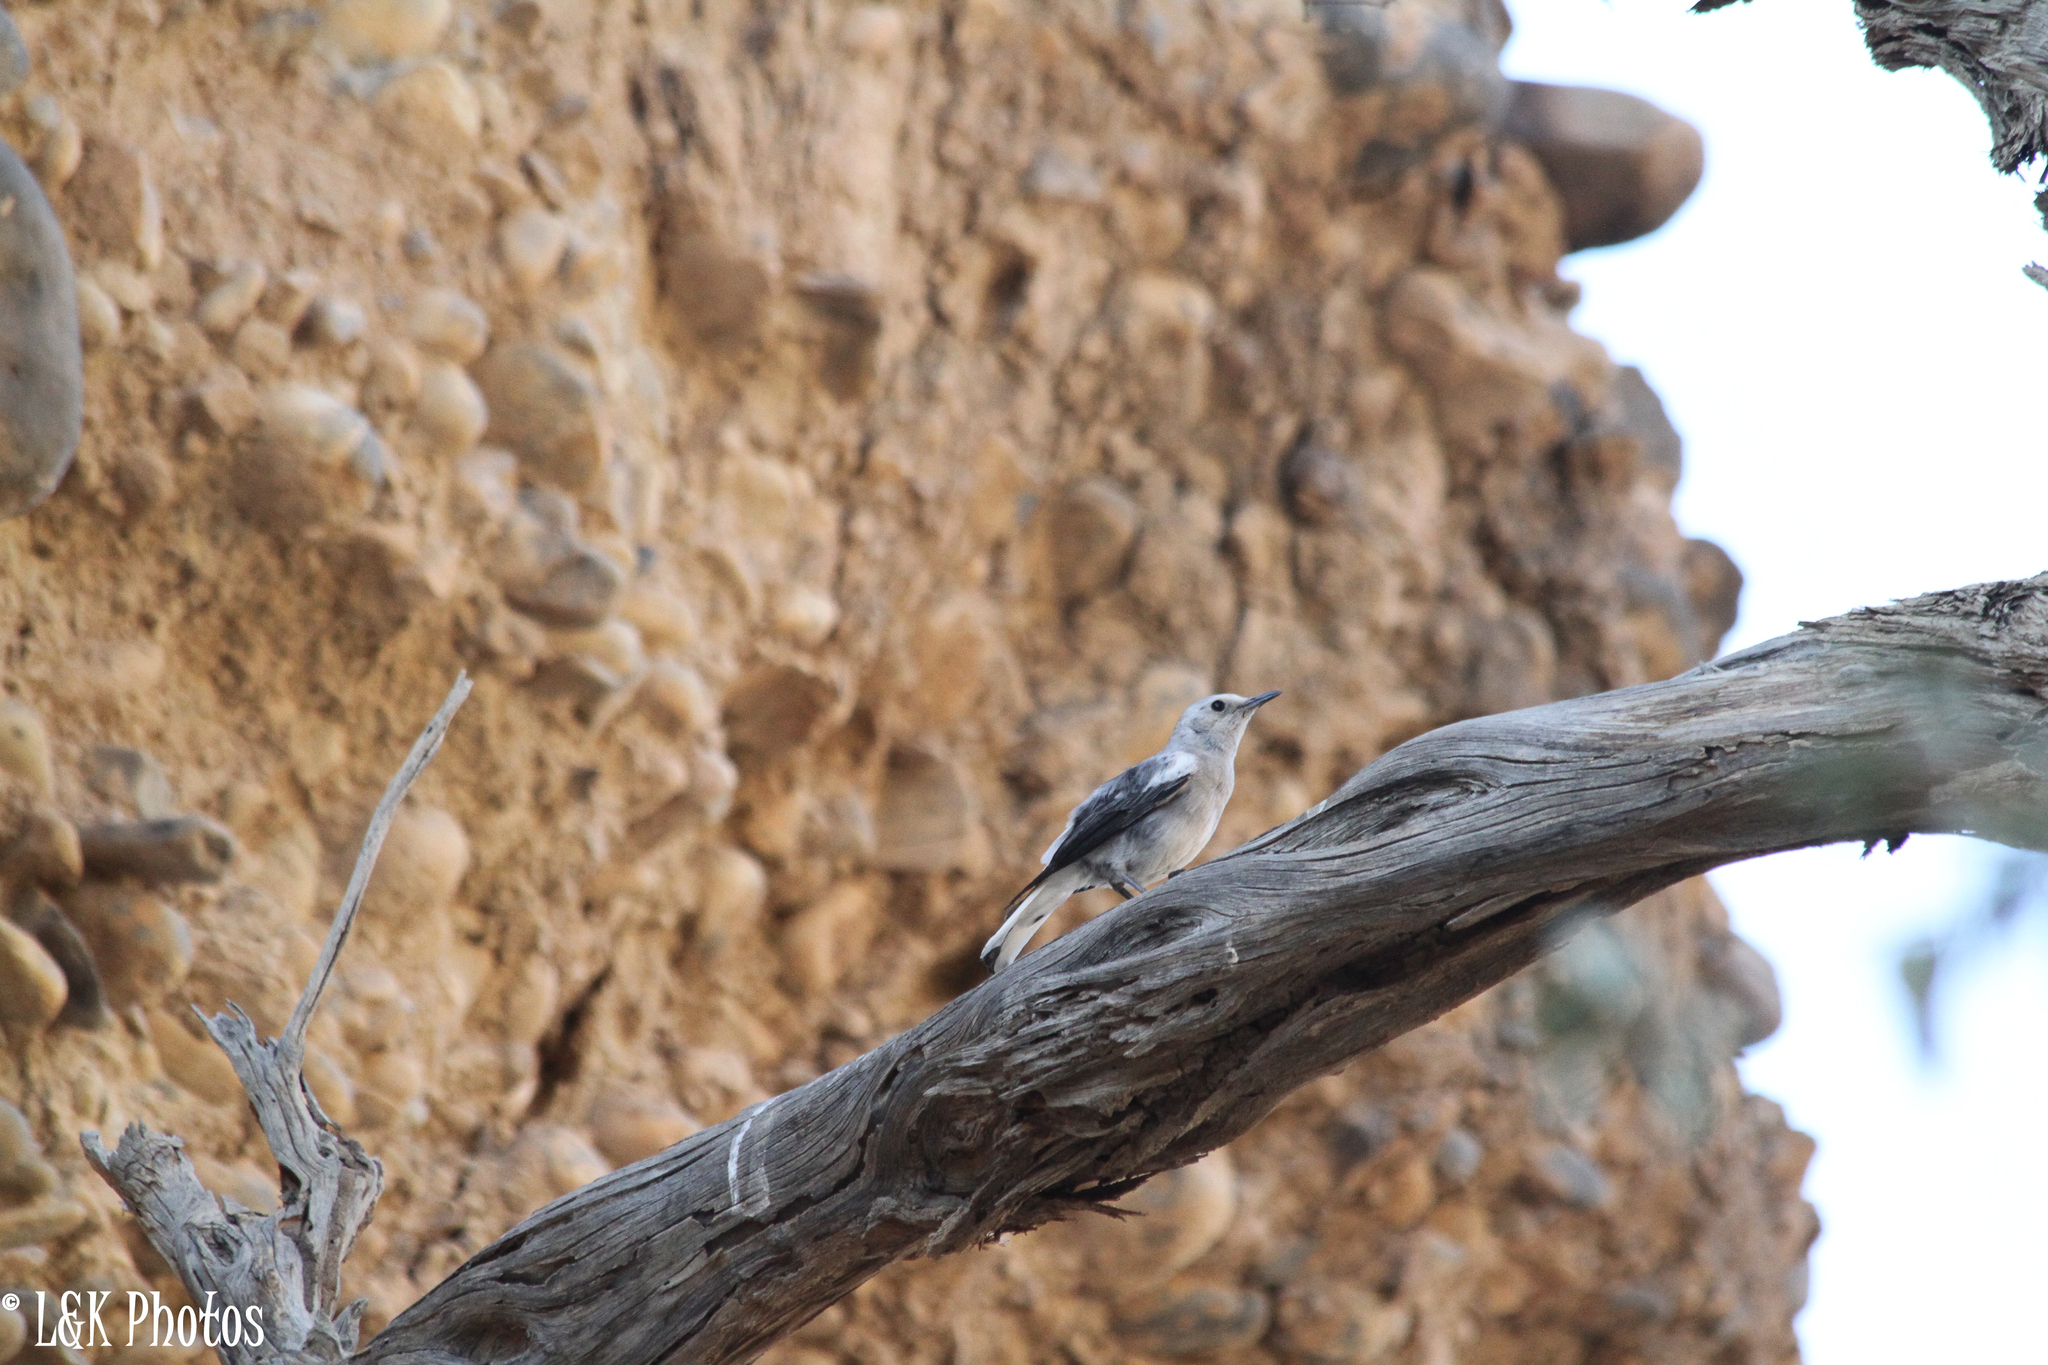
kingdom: Animalia
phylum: Chordata
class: Aves
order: Passeriformes
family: Muscicapidae
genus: Oenanthe
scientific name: Oenanthe monticola
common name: Mountain wheatear
